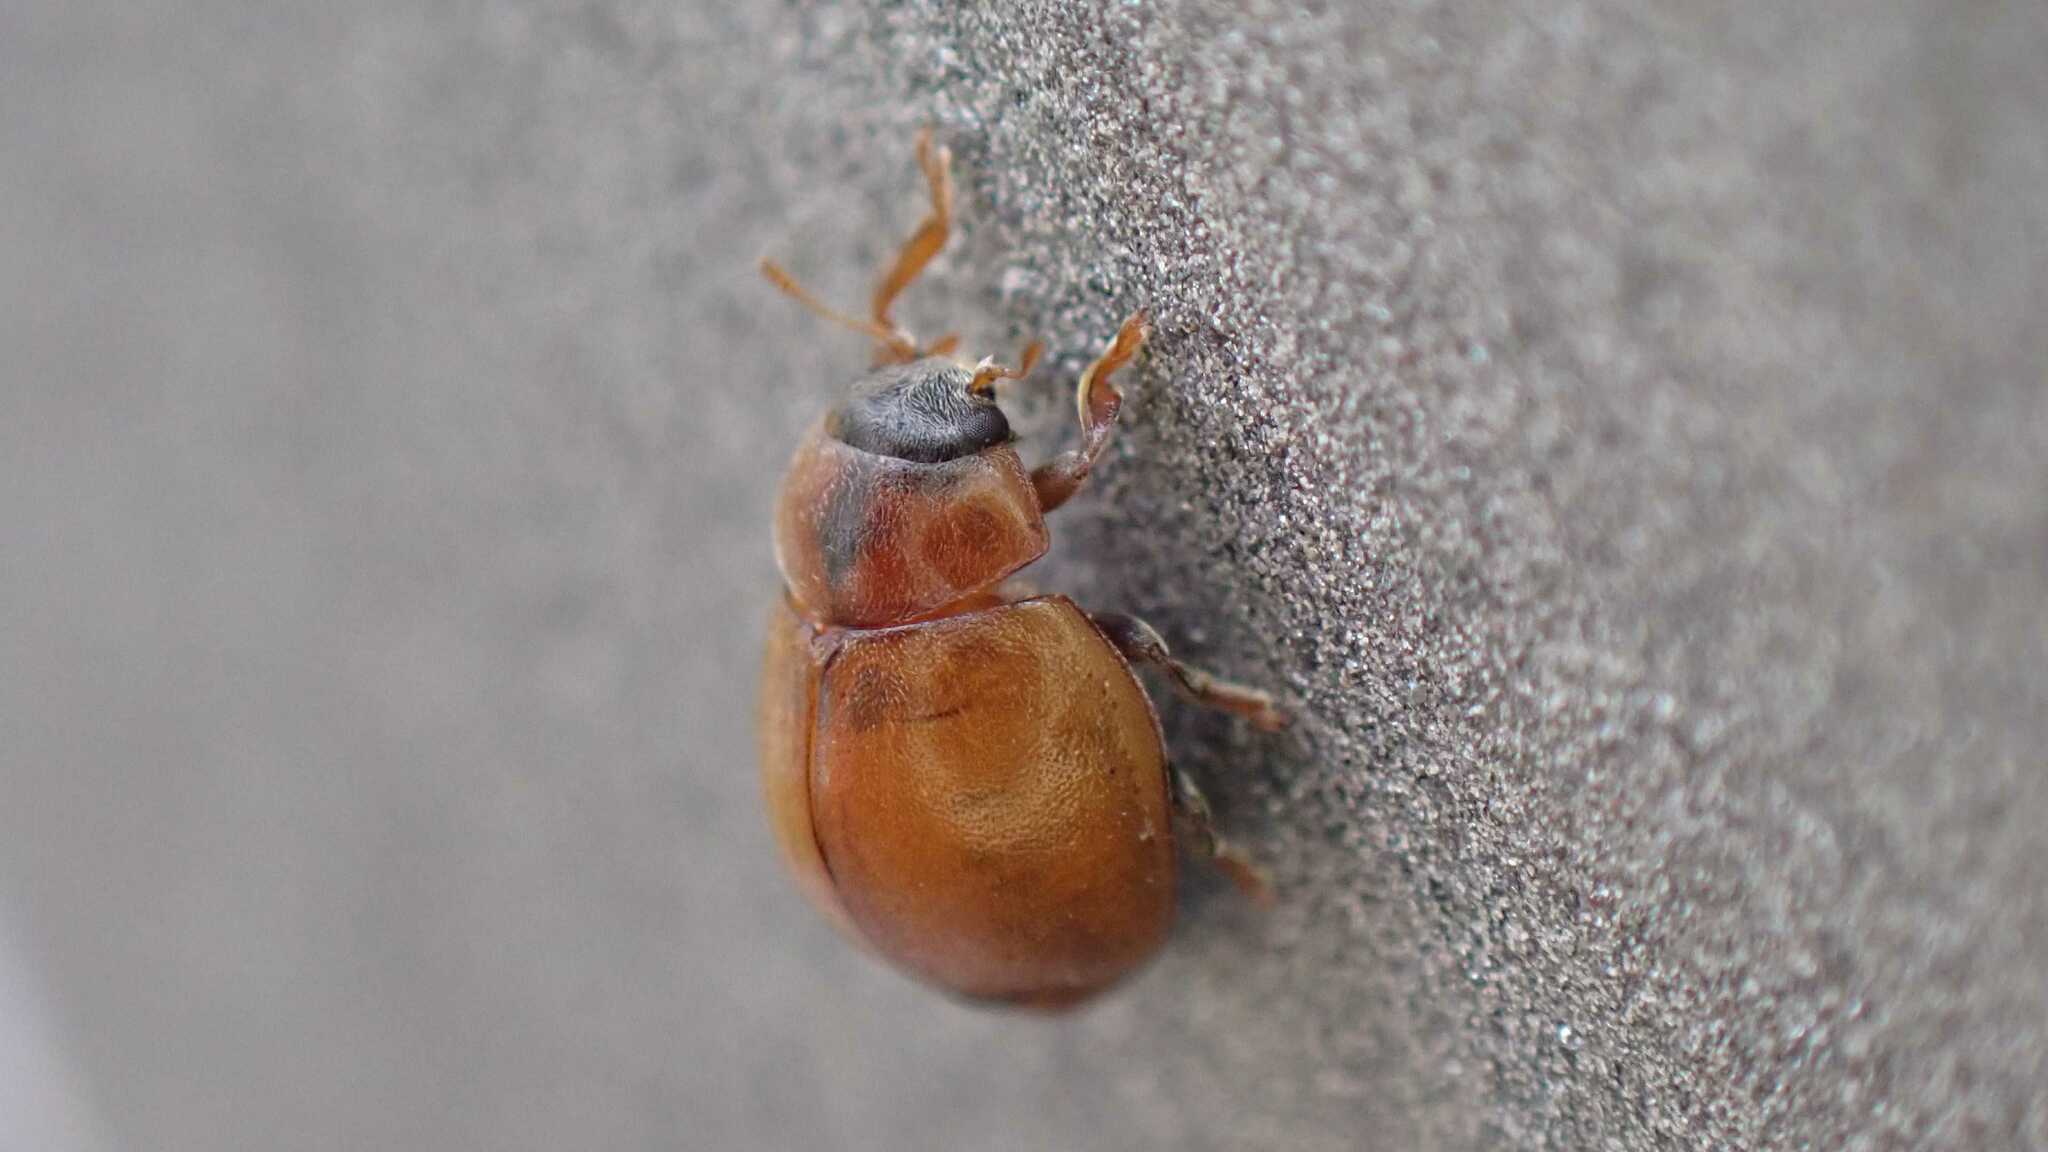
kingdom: Animalia
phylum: Arthropoda
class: Insecta
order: Coleoptera
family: Coccinellidae
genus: Cynegetis
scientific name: Cynegetis impunctata
